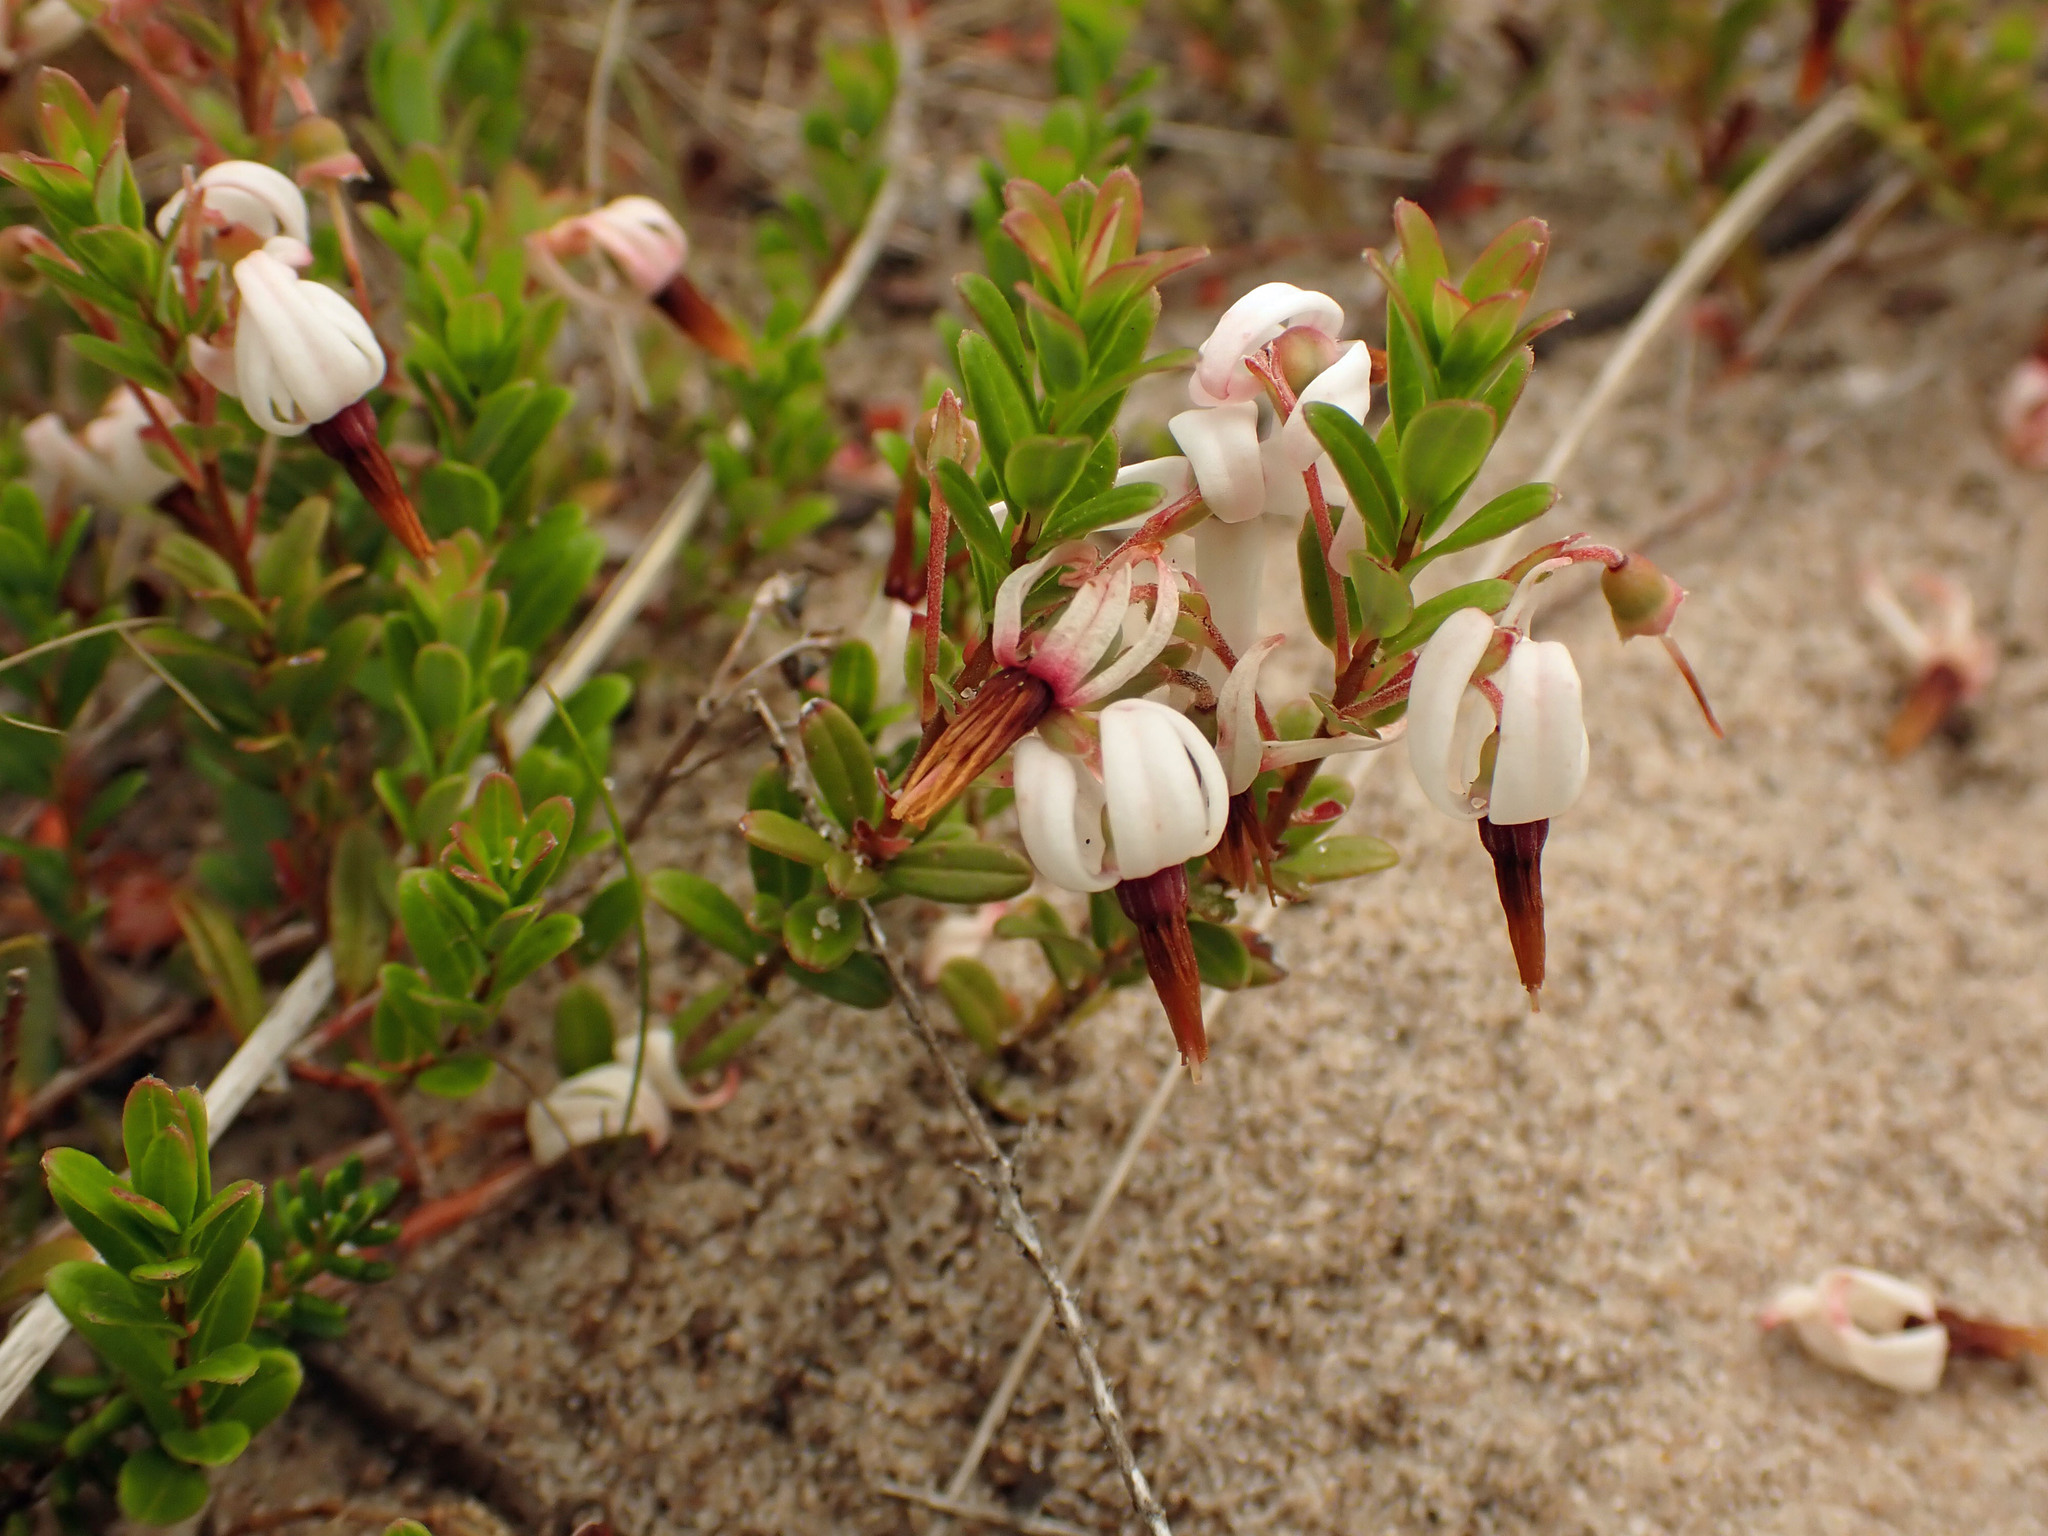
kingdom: Plantae
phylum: Tracheophyta
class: Magnoliopsida
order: Ericales
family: Ericaceae
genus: Vaccinium
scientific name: Vaccinium macrocarpon
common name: American cranberry
